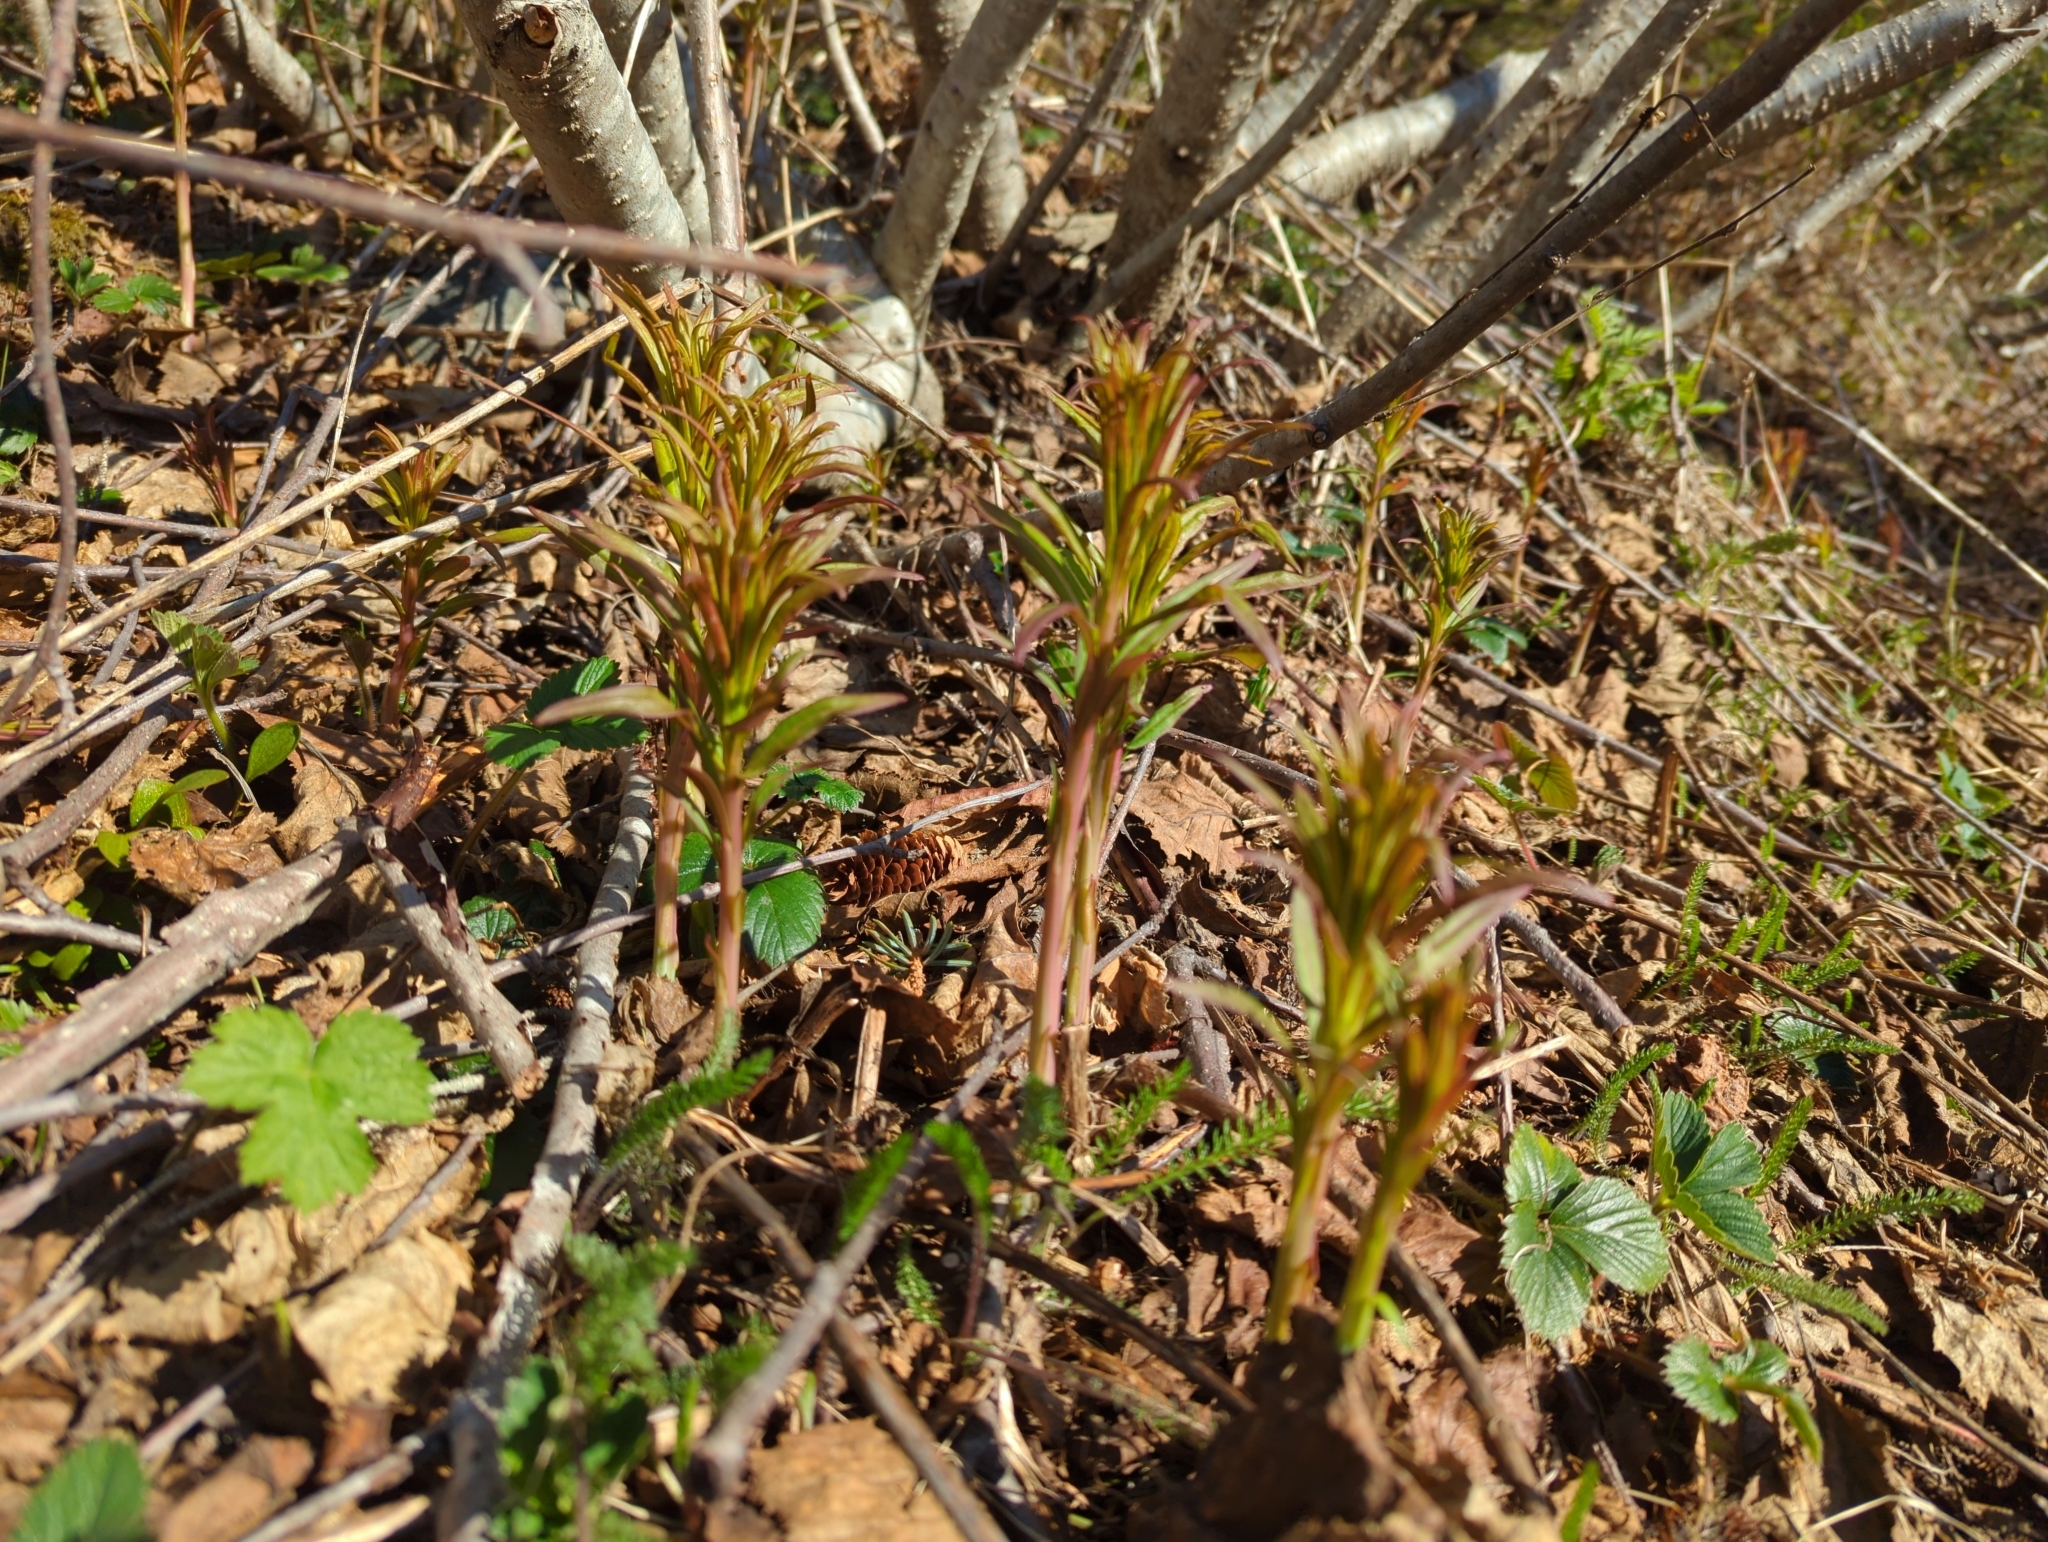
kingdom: Plantae
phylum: Tracheophyta
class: Magnoliopsida
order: Myrtales
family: Onagraceae
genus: Chamaenerion
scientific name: Chamaenerion angustifolium
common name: Fireweed
